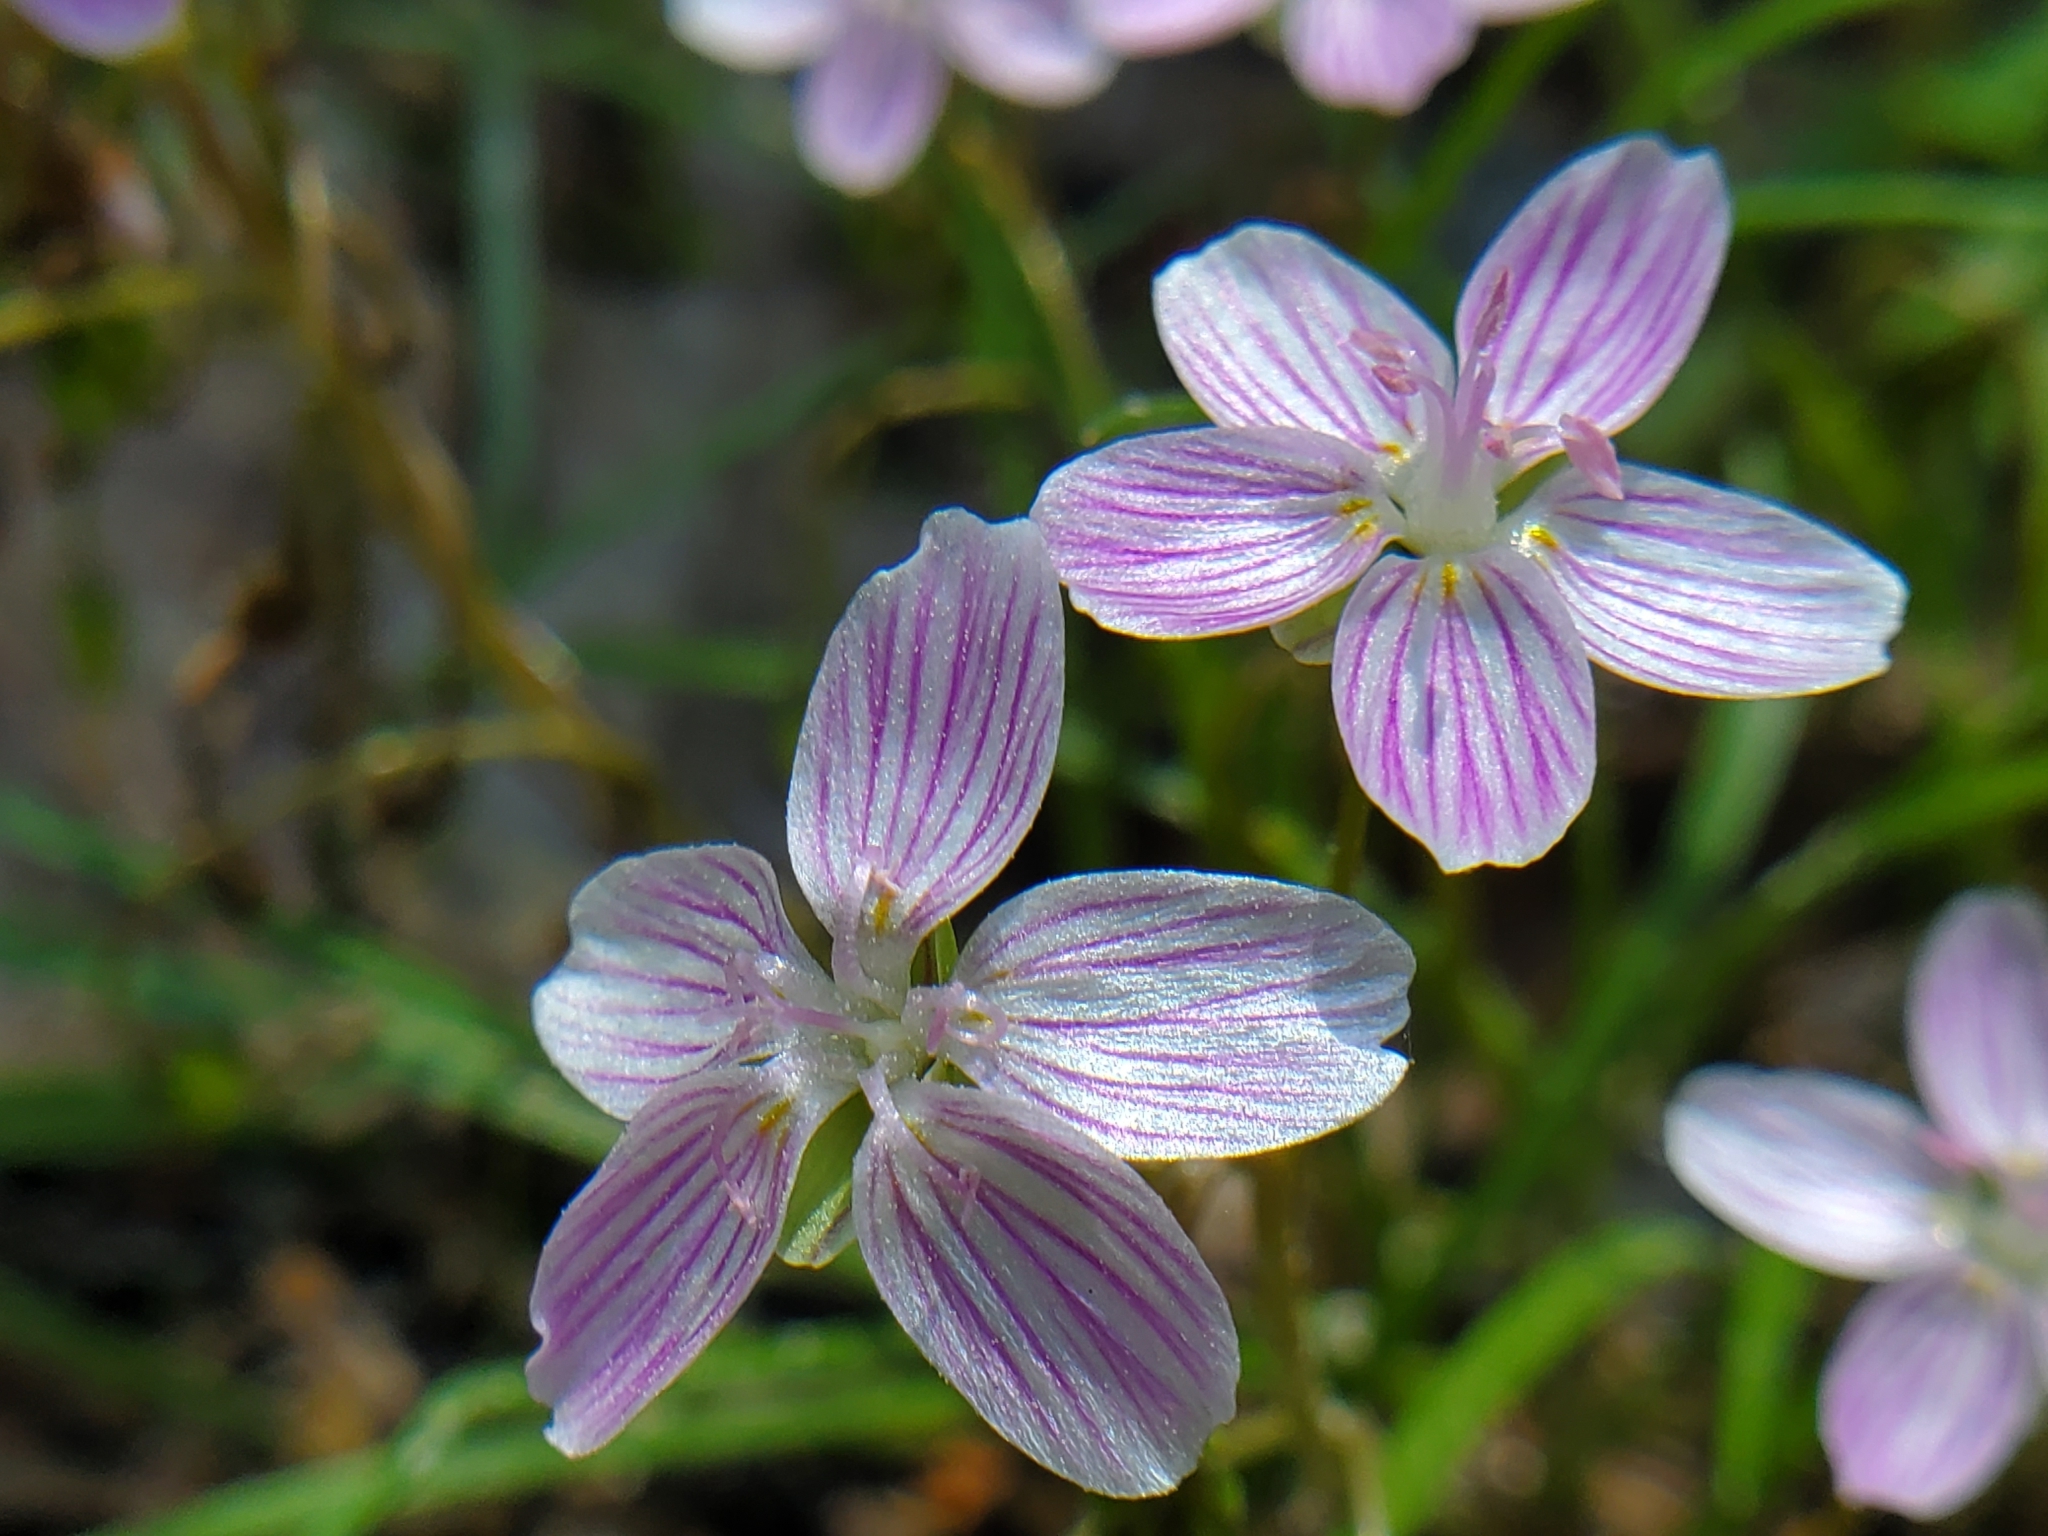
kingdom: Plantae
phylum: Tracheophyta
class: Magnoliopsida
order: Caryophyllales
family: Montiaceae
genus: Claytonia
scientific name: Claytonia virginica
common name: Virginia springbeauty
